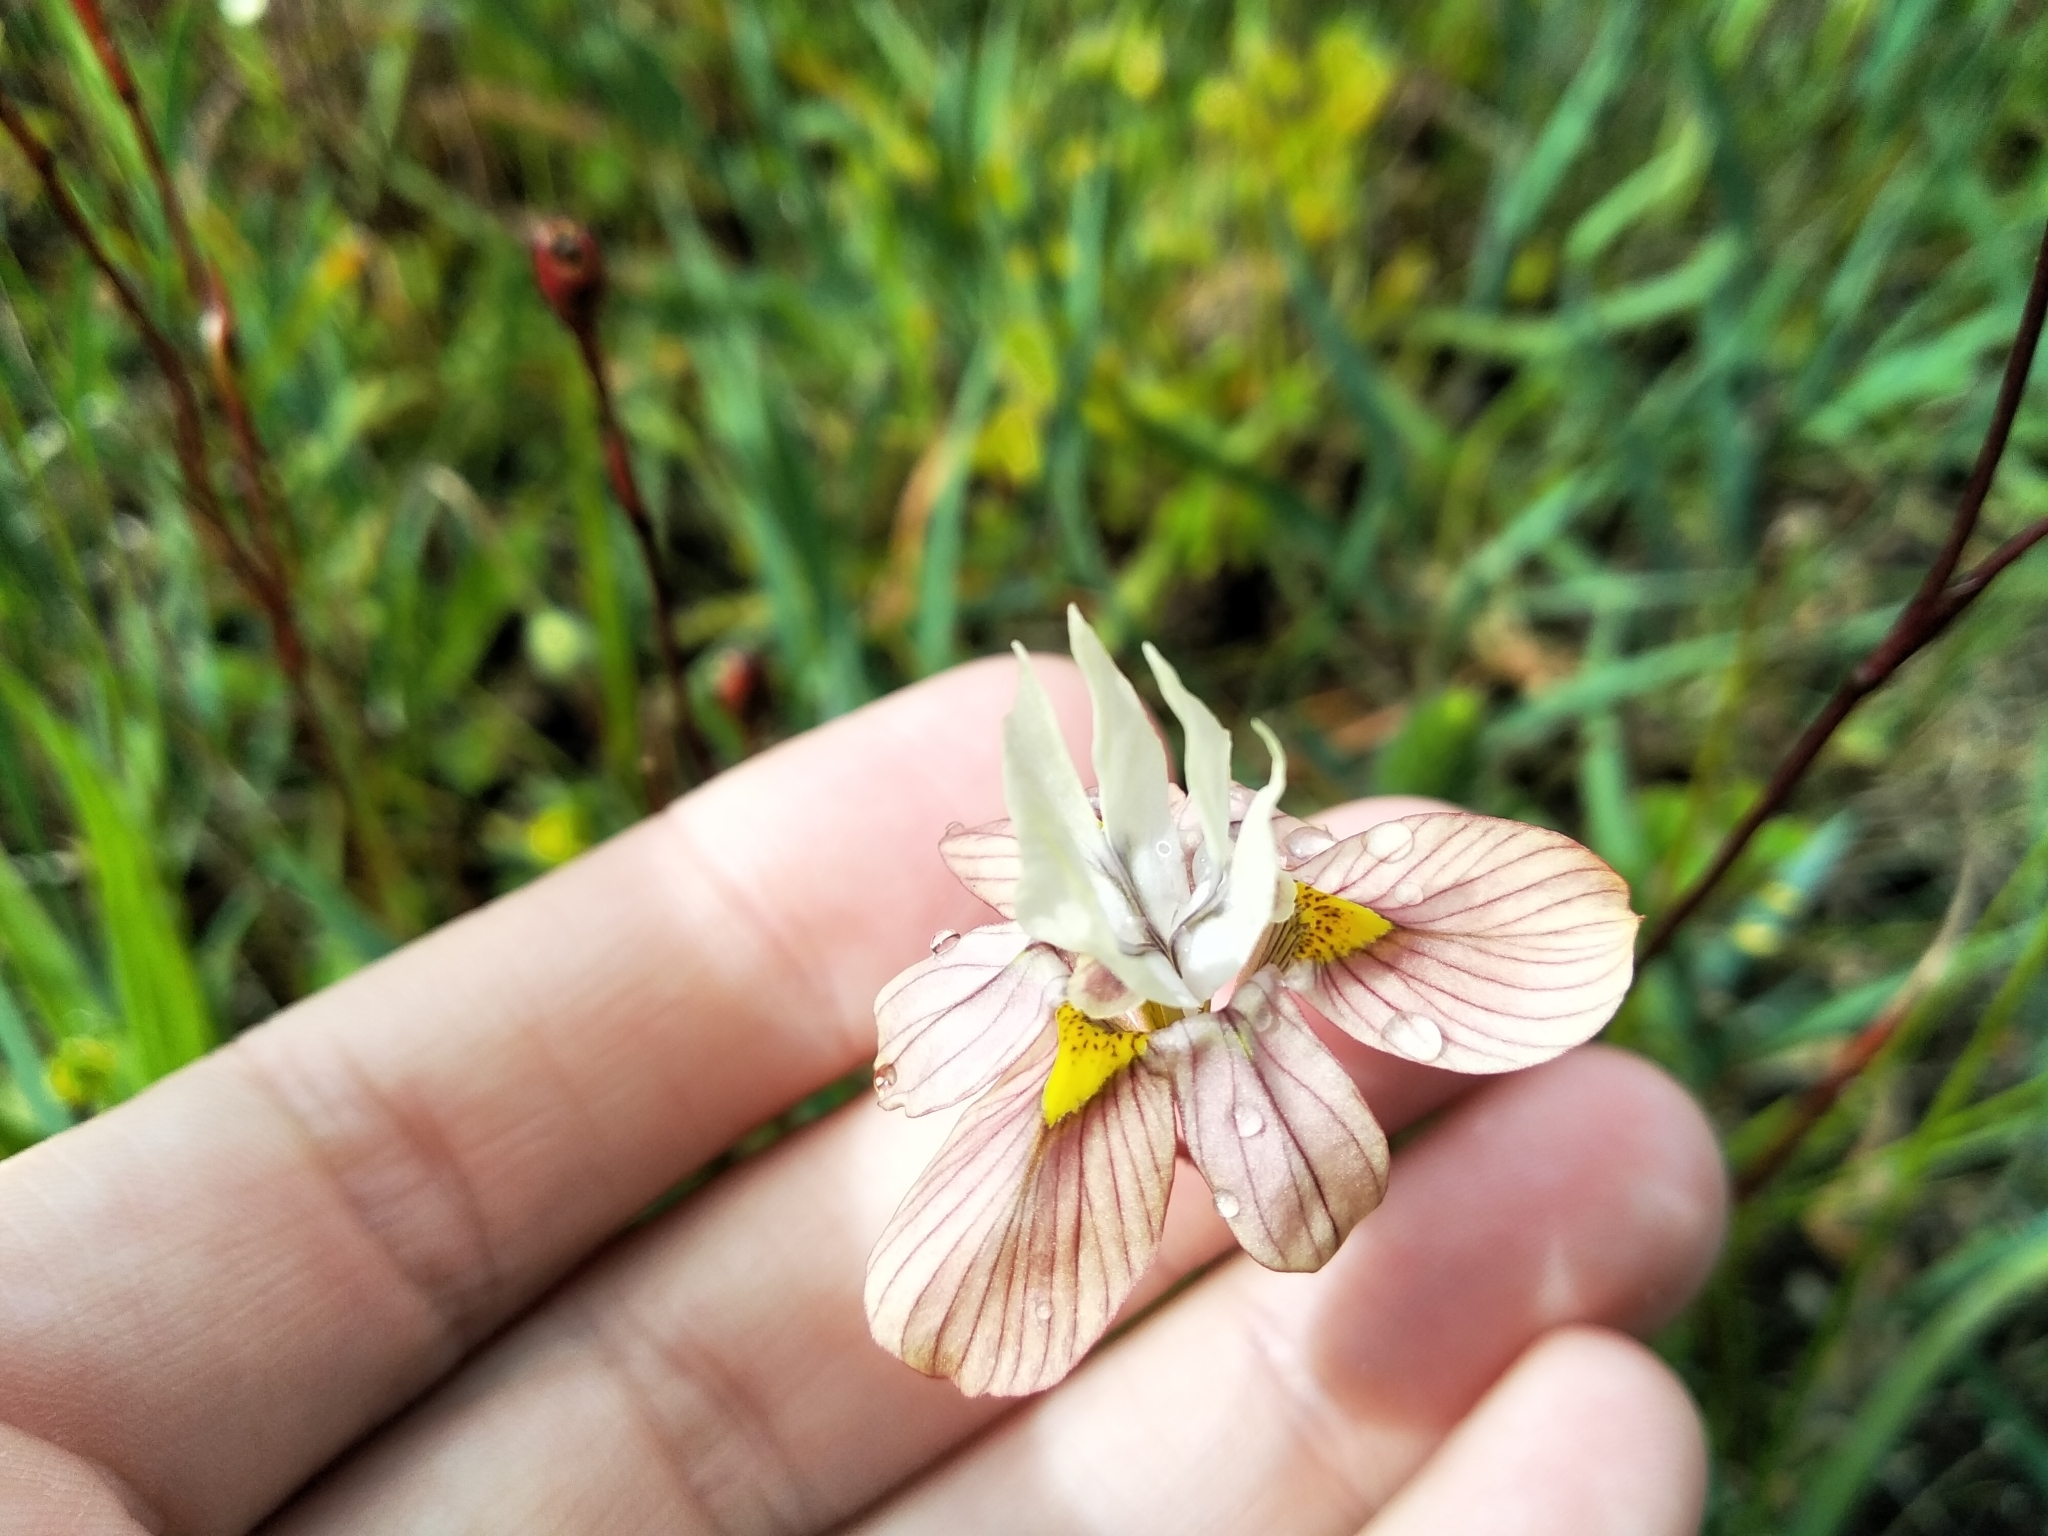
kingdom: Plantae
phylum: Tracheophyta
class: Liliopsida
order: Asparagales
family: Iridaceae
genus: Moraea
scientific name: Moraea gawleri
